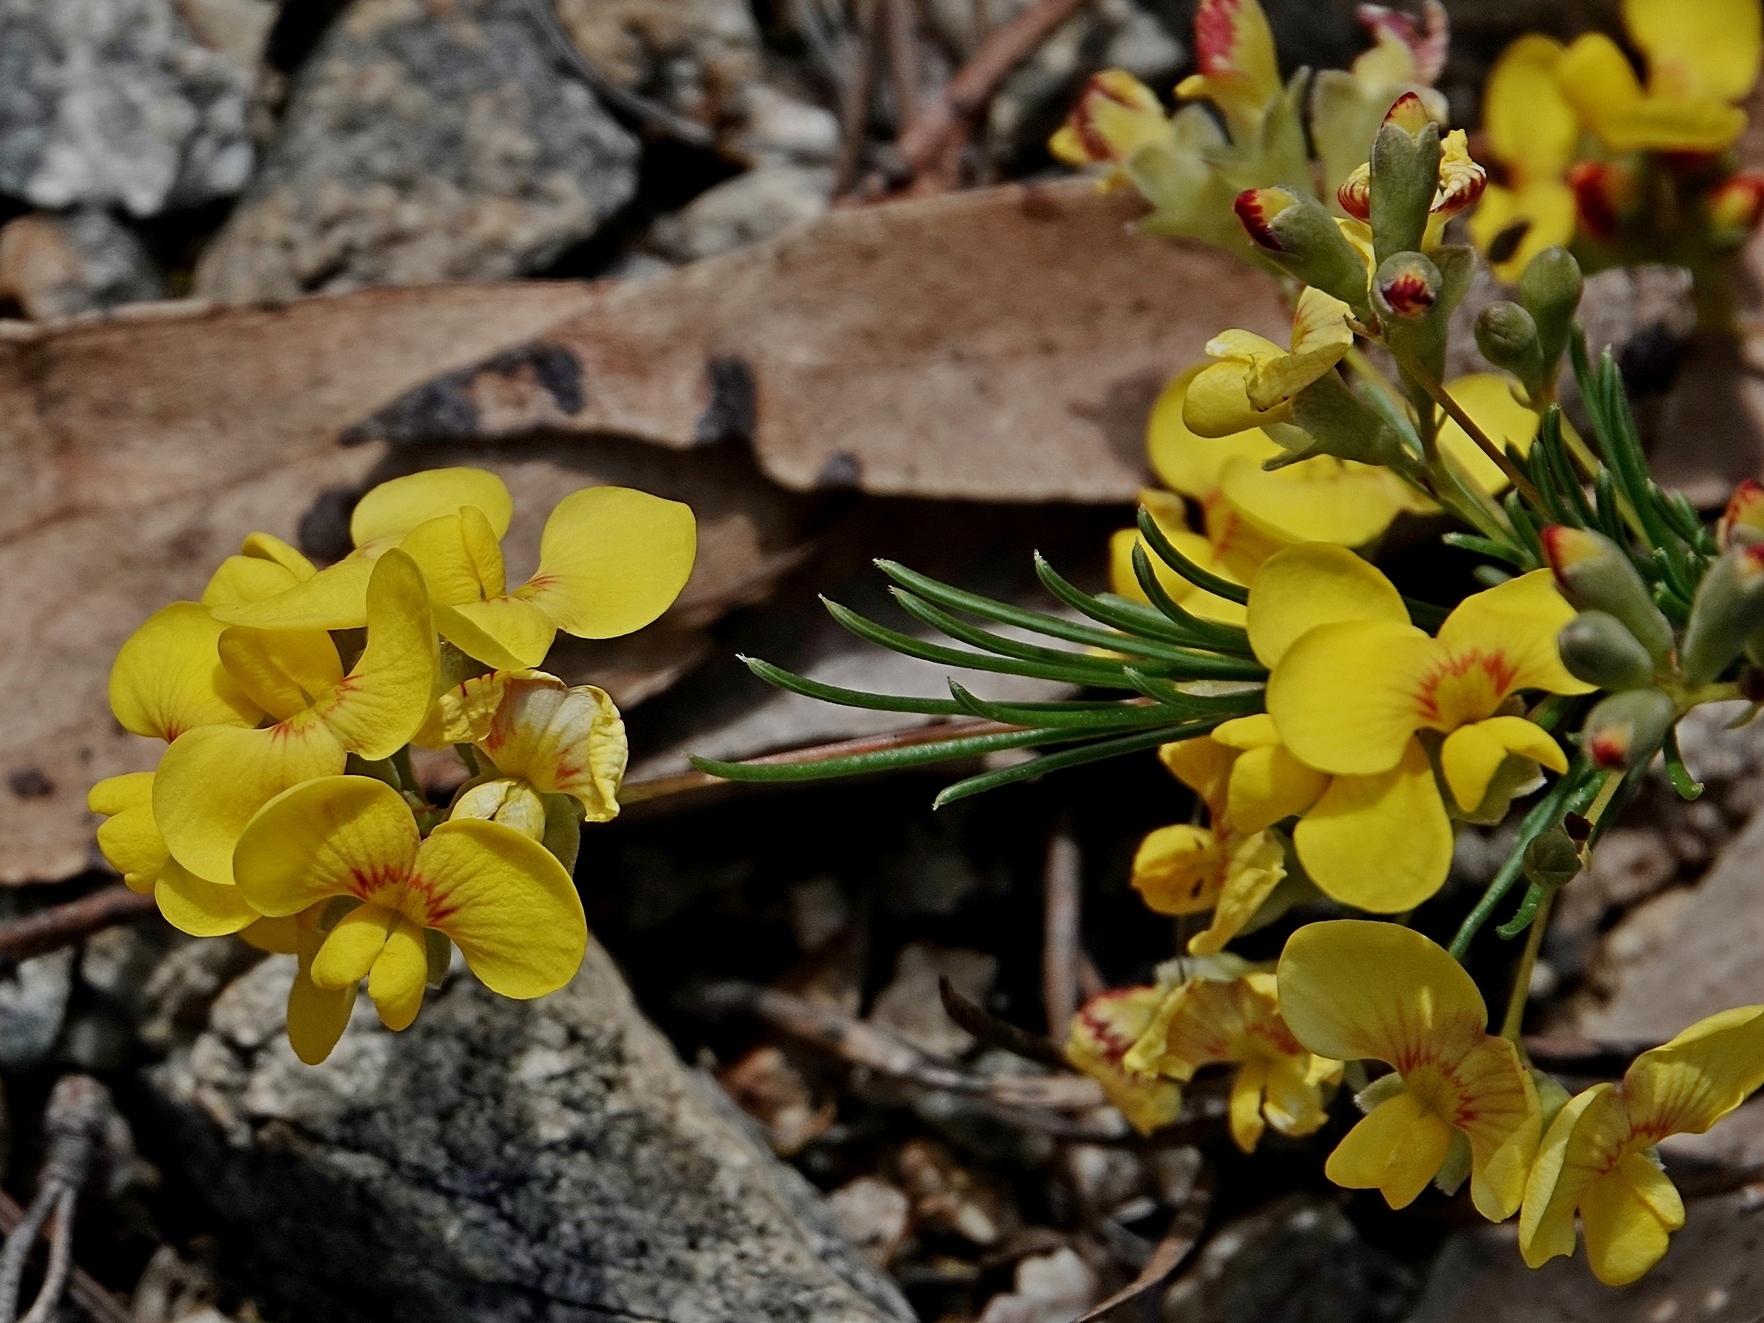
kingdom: Plantae
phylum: Tracheophyta
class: Magnoliopsida
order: Fabales
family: Fabaceae
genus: Dillwynia
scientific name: Dillwynia glaberrima
